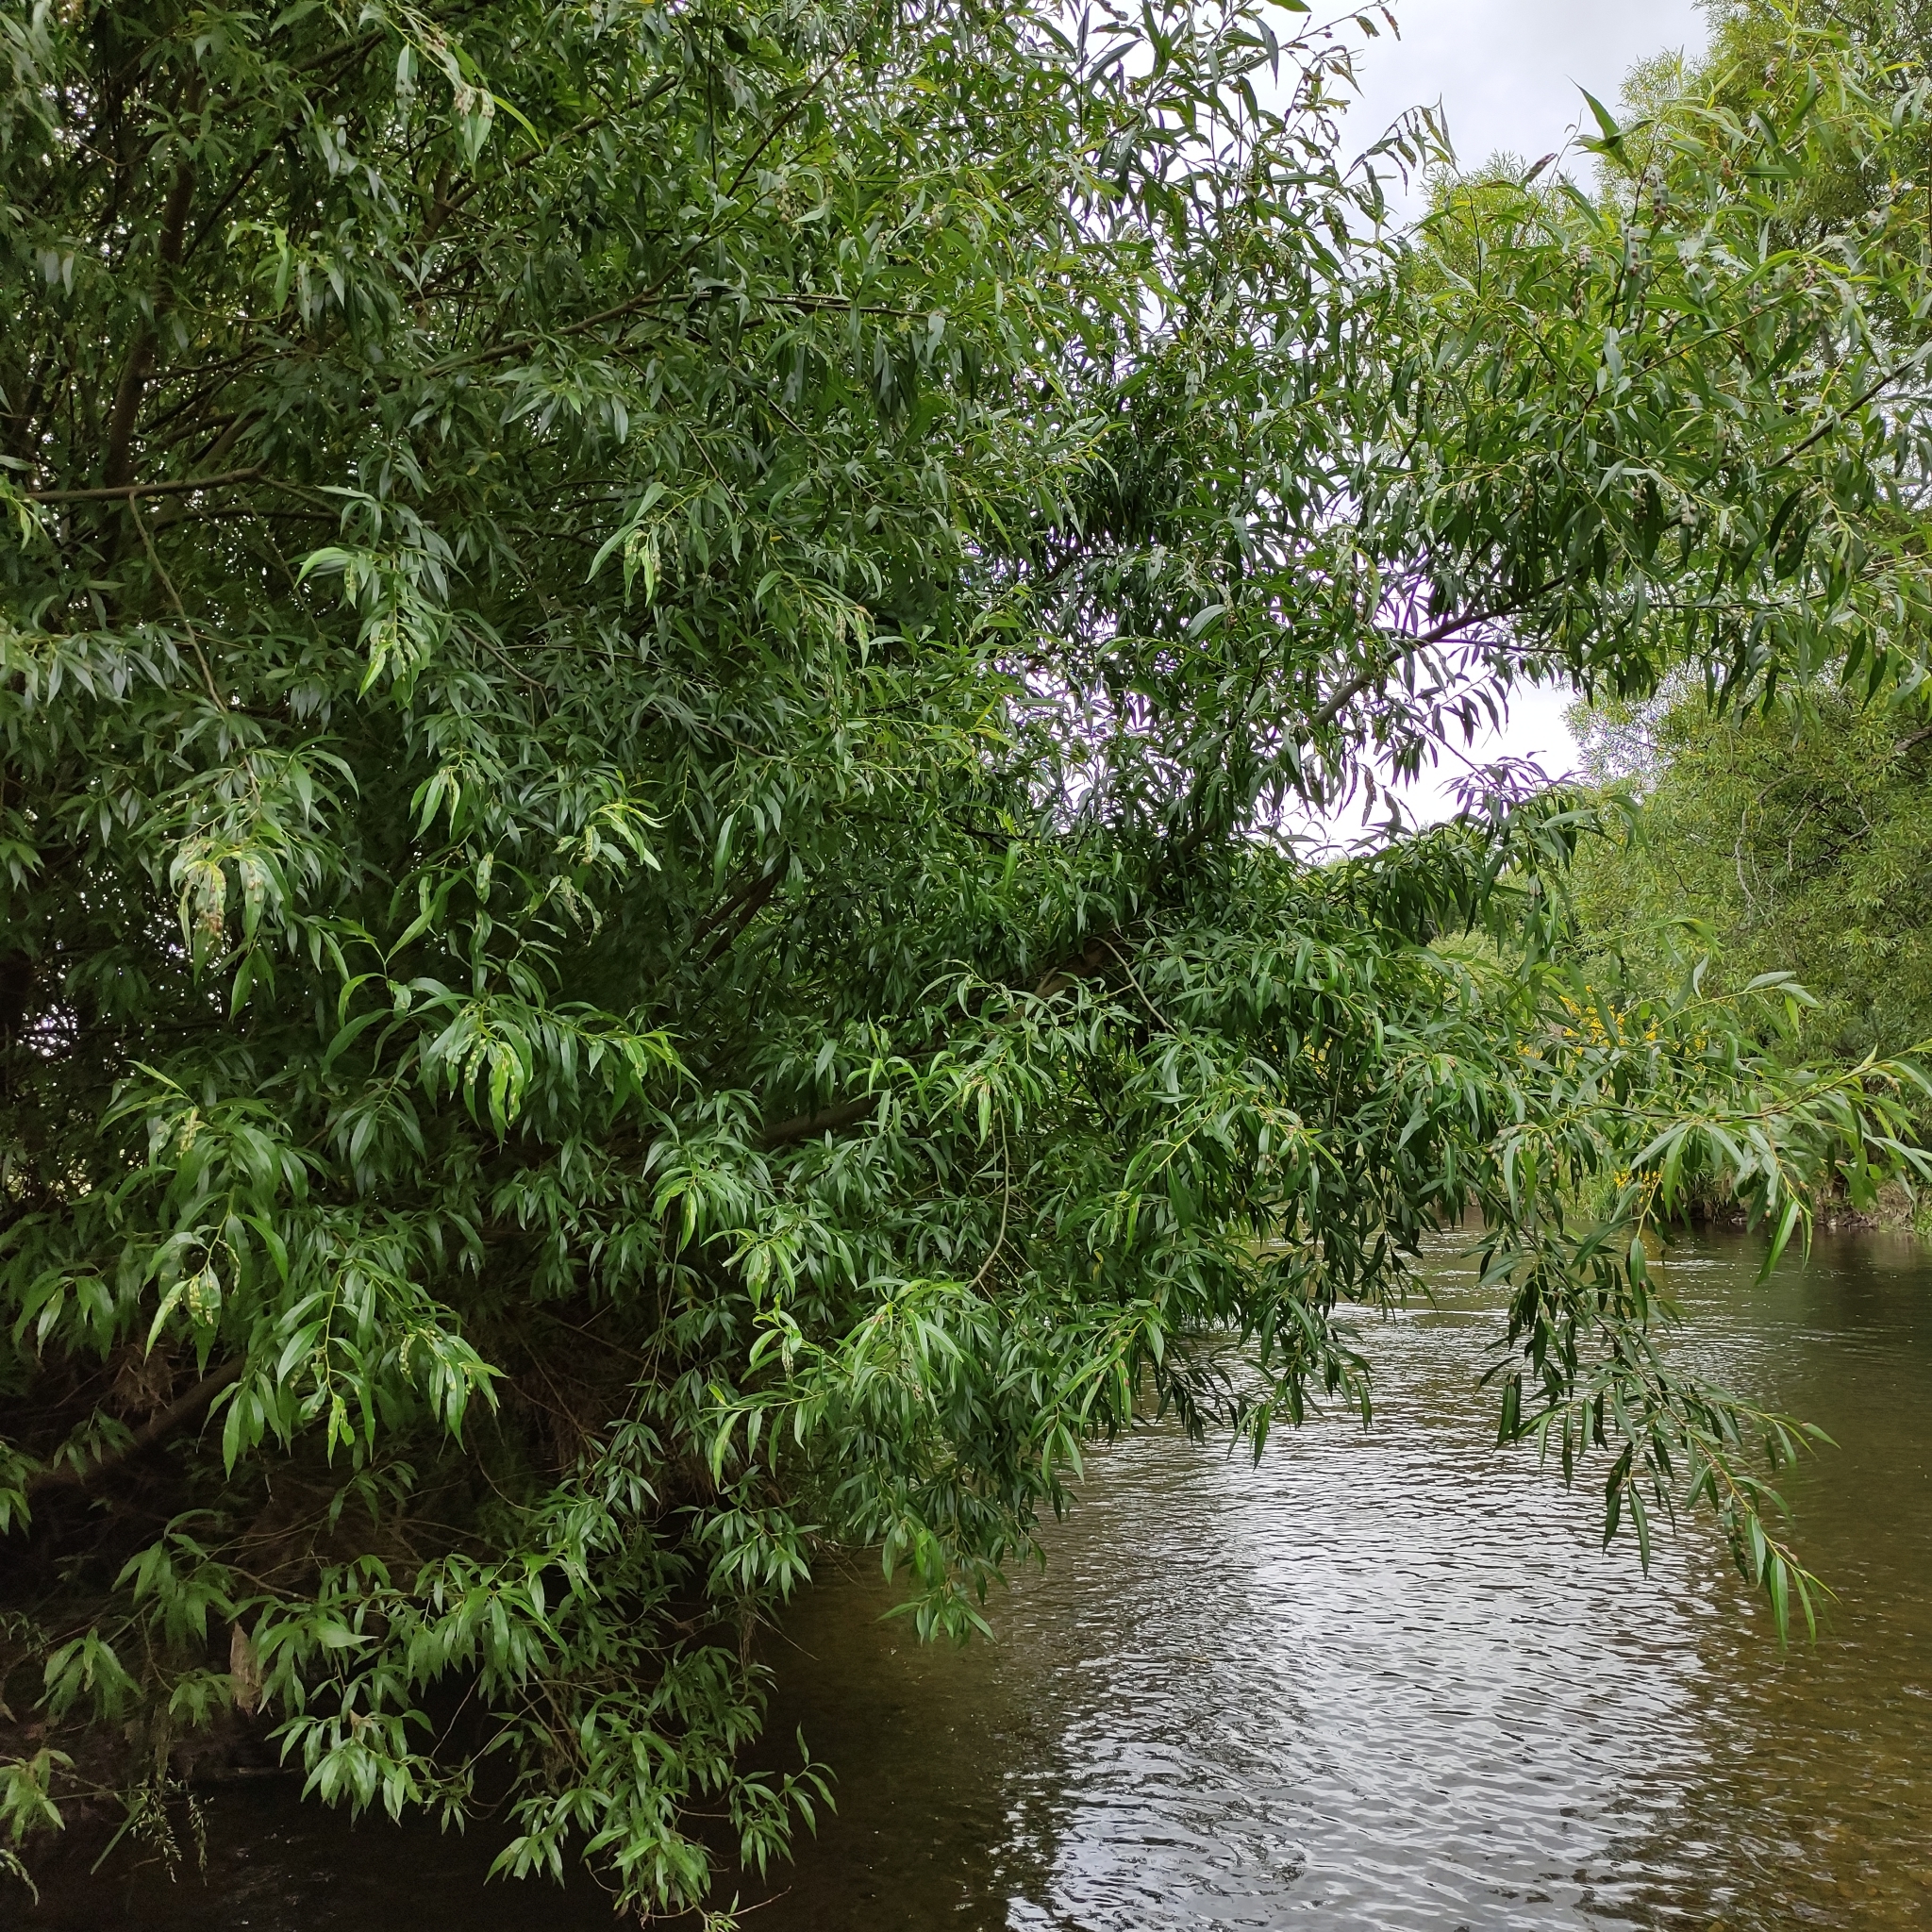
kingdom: Plantae
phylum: Tracheophyta
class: Magnoliopsida
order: Malpighiales
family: Salicaceae
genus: Salix
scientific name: Salix fragilis
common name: Crack willow
